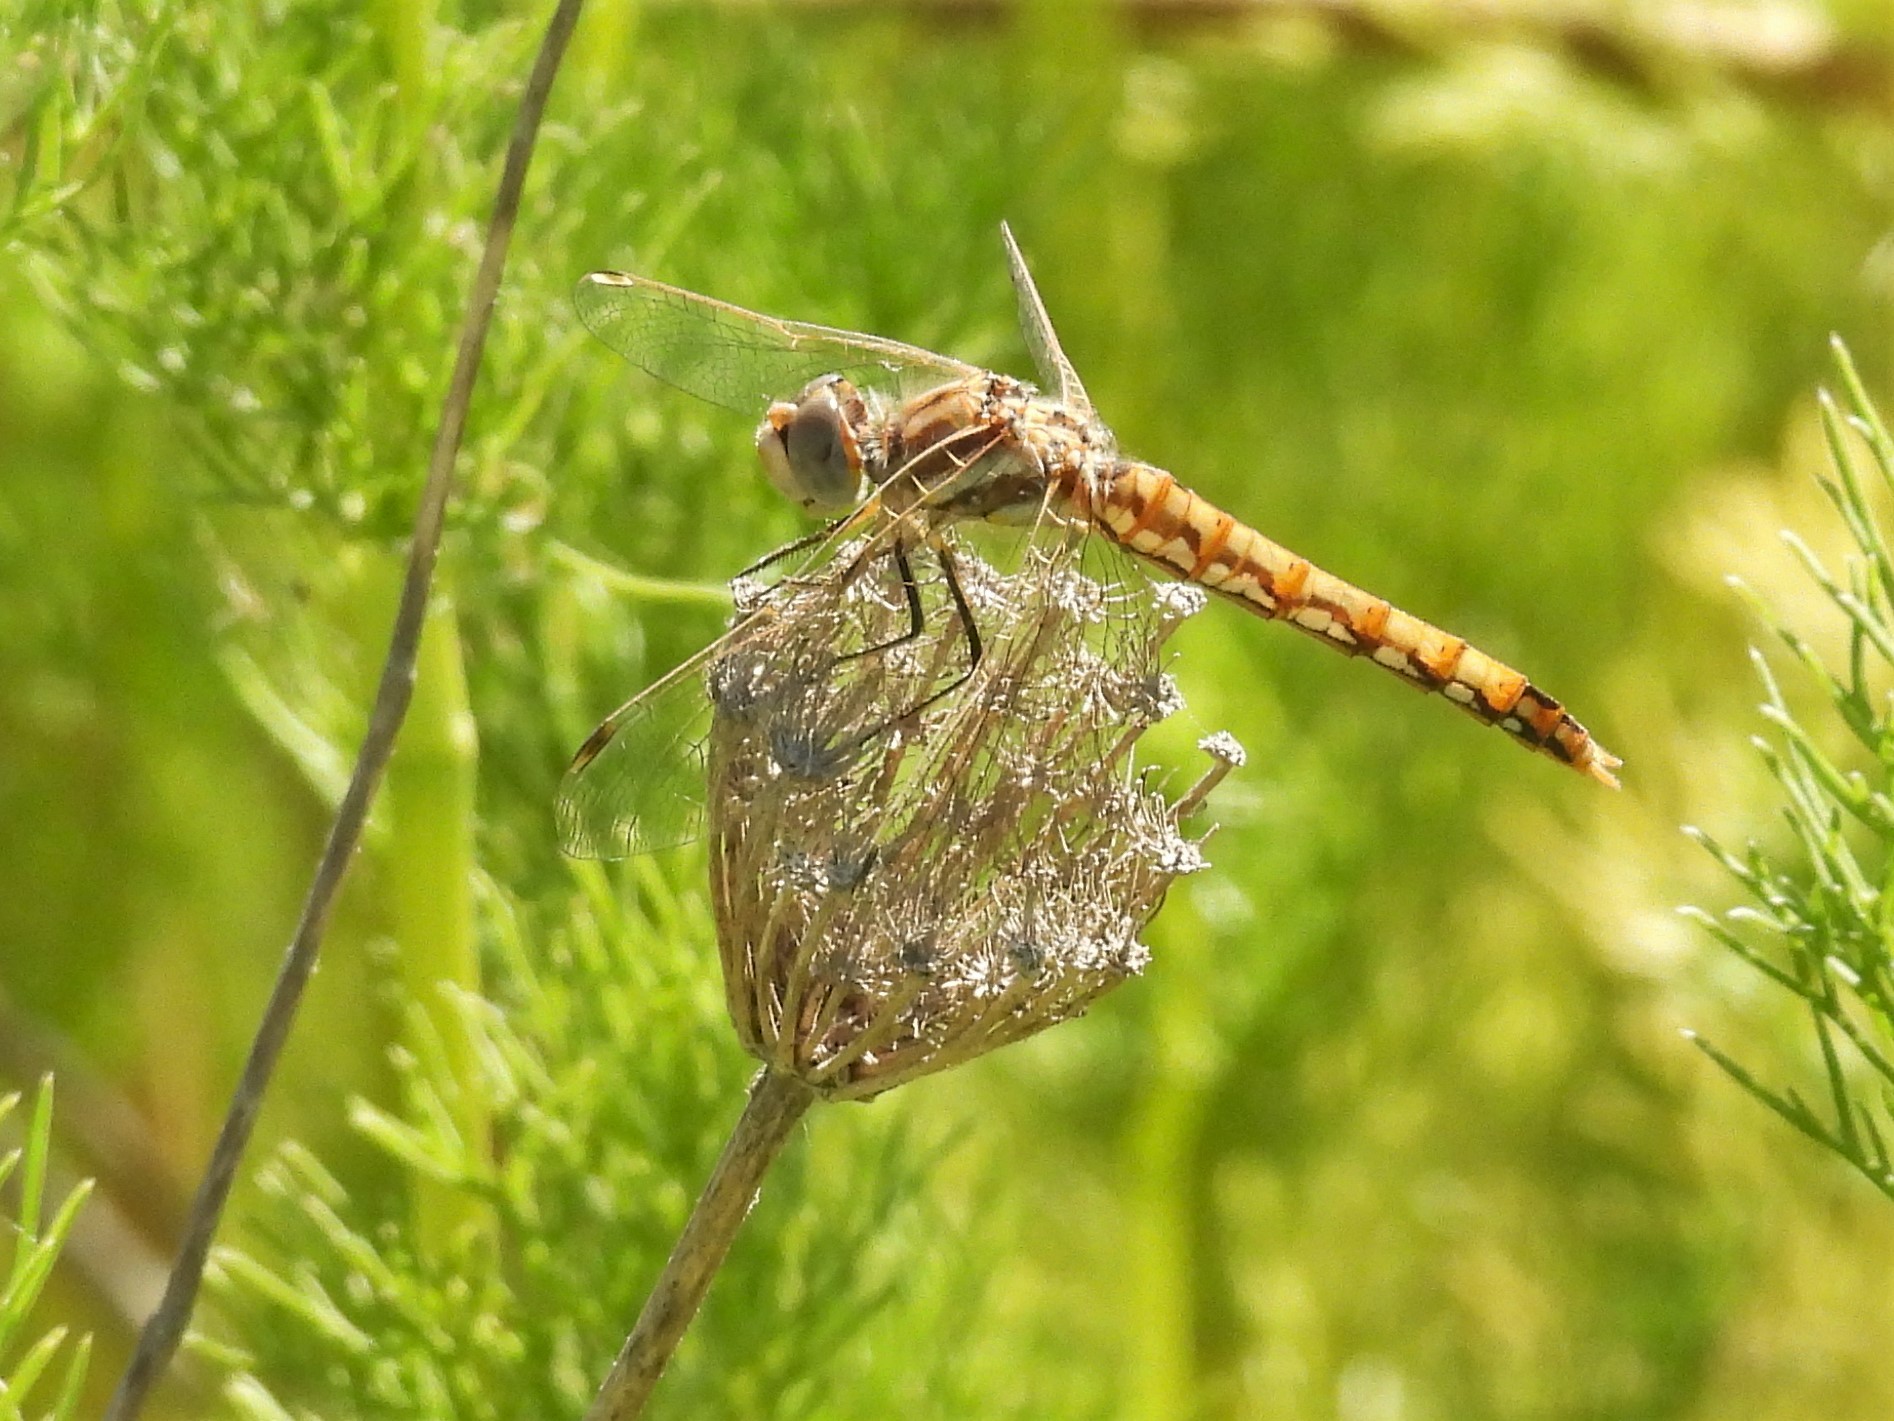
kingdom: Animalia
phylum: Arthropoda
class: Insecta
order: Odonata
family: Libellulidae
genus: Sympetrum
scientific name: Sympetrum corruptum
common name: Variegated meadowhawk
